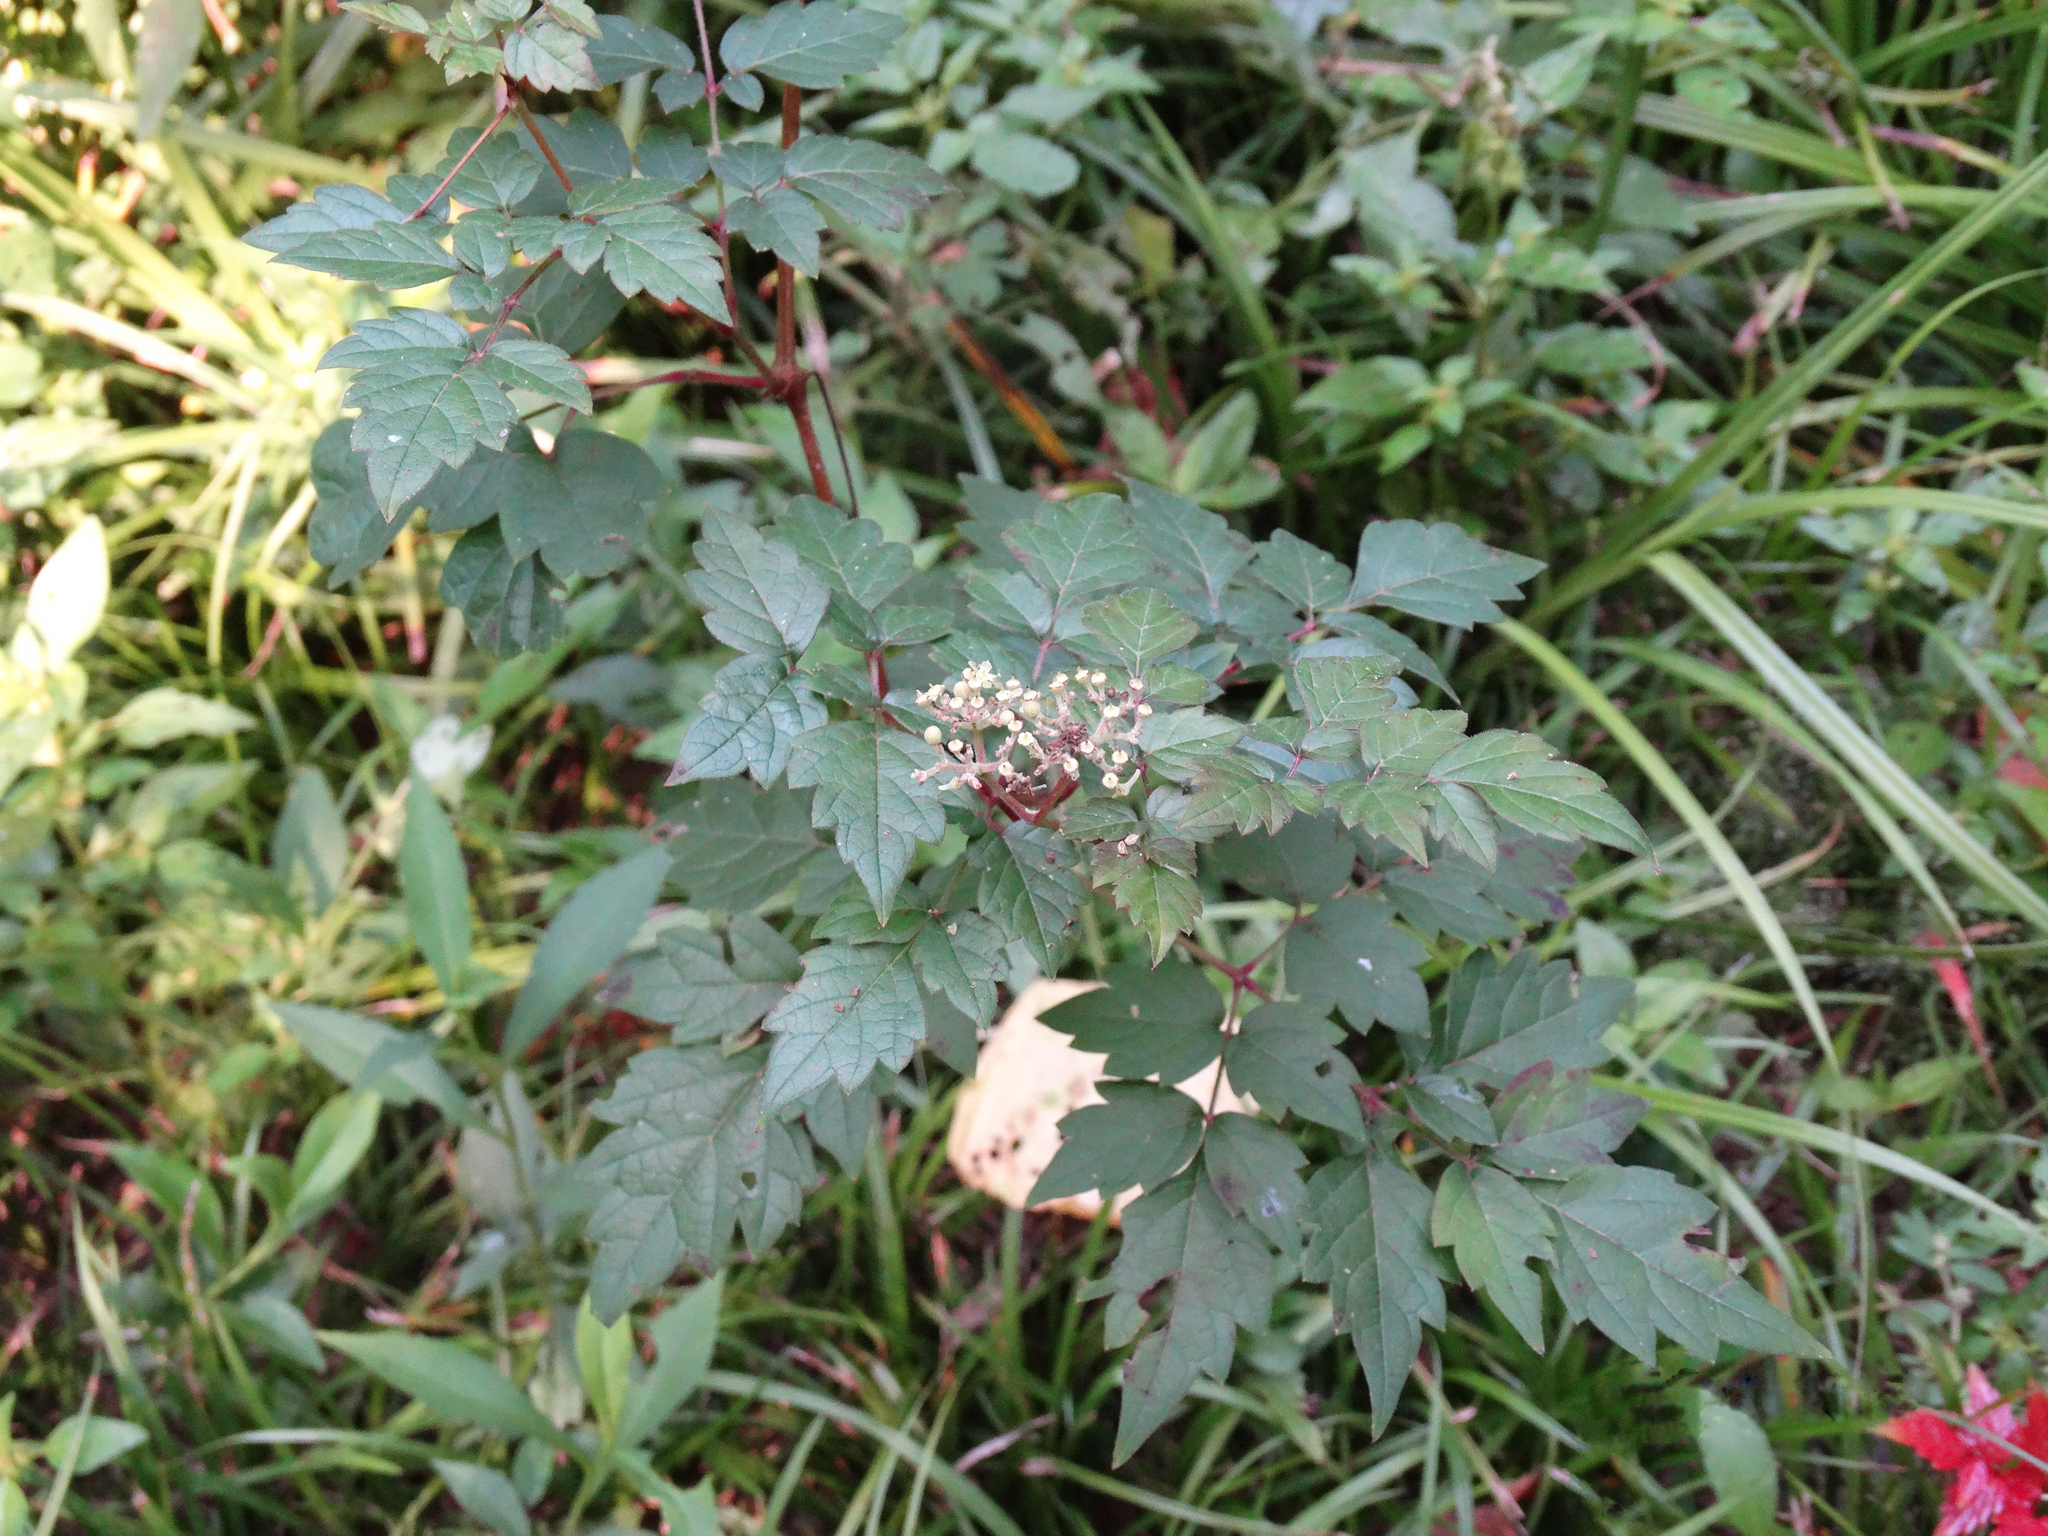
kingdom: Plantae
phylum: Tracheophyta
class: Magnoliopsida
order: Vitales
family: Vitaceae
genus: Nekemias
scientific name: Nekemias arborea
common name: Peppervine
